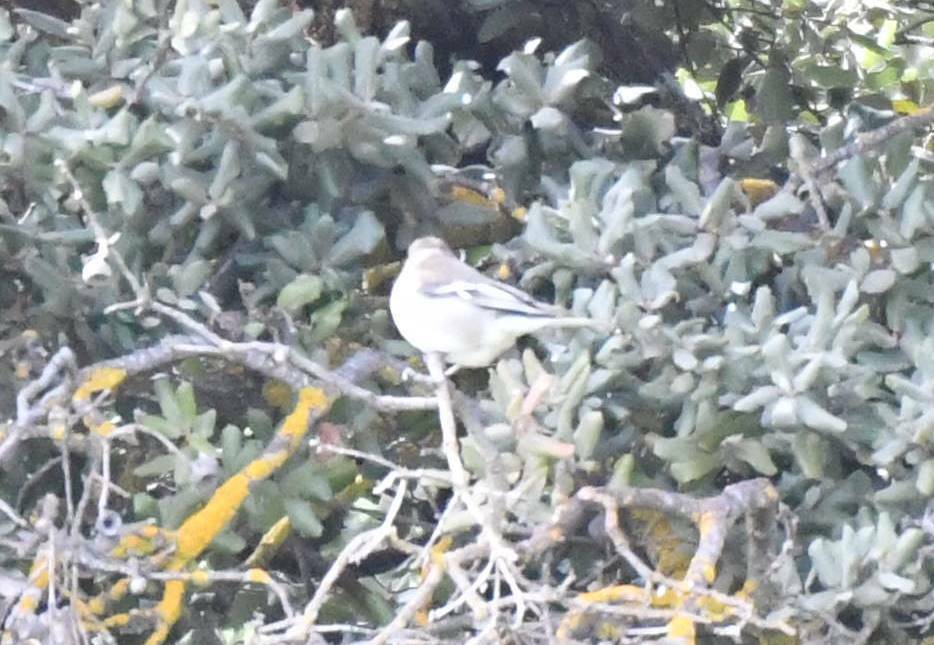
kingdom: Animalia
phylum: Chordata
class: Aves
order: Passeriformes
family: Fringillidae
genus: Fringilla
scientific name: Fringilla spodiogenys
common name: African chaffinch
